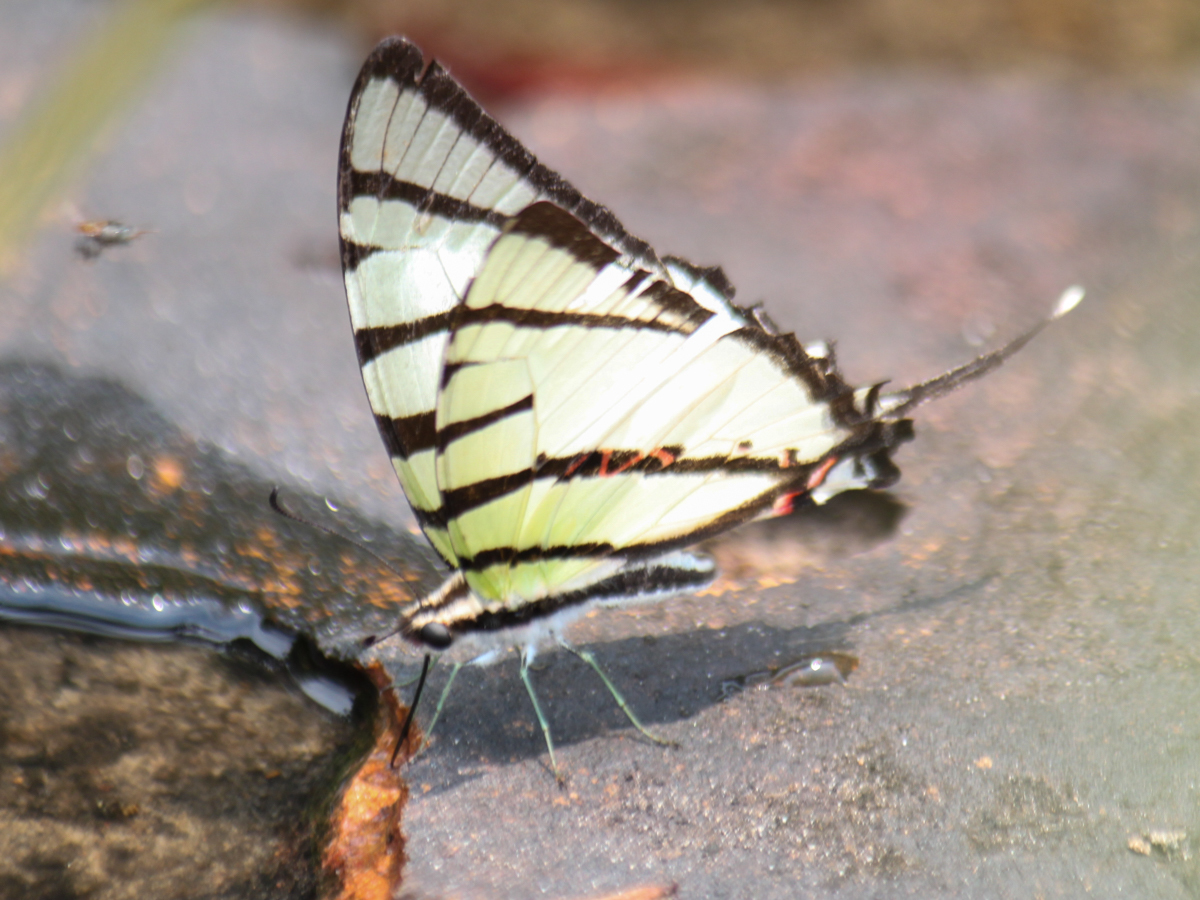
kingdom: Animalia
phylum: Arthropoda
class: Insecta
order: Lepidoptera
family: Papilionidae
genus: Graphium
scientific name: Graphium agetes
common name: Fourbar swordtail
